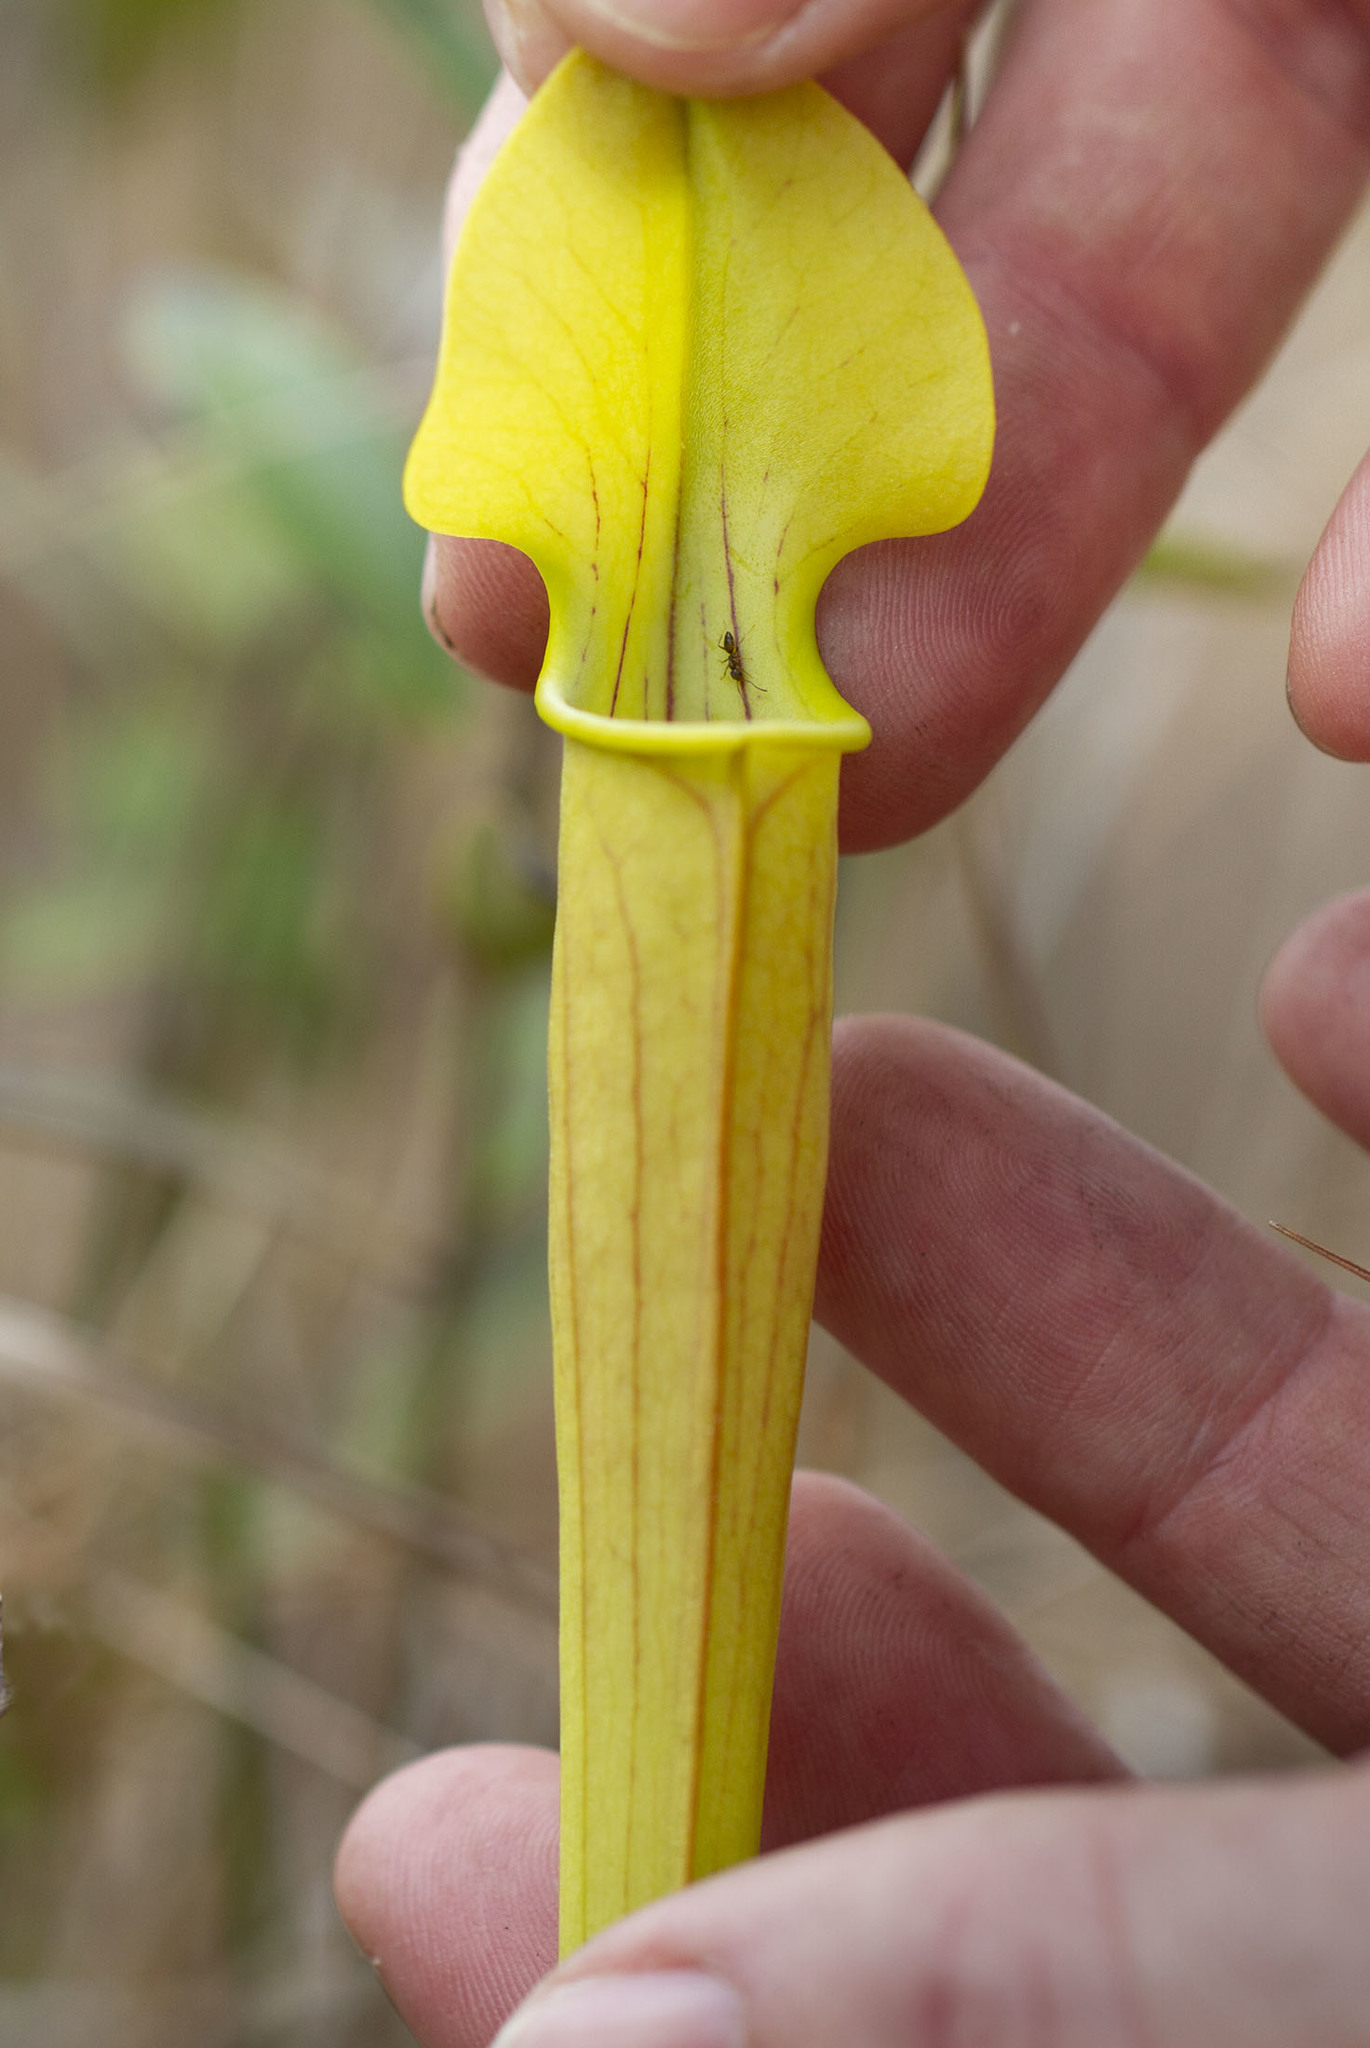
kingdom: Plantae
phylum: Tracheophyta
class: Magnoliopsida
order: Ericales
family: Sarraceniaceae
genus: Sarracenia
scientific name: Sarracenia alata
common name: Yellow trumpets
